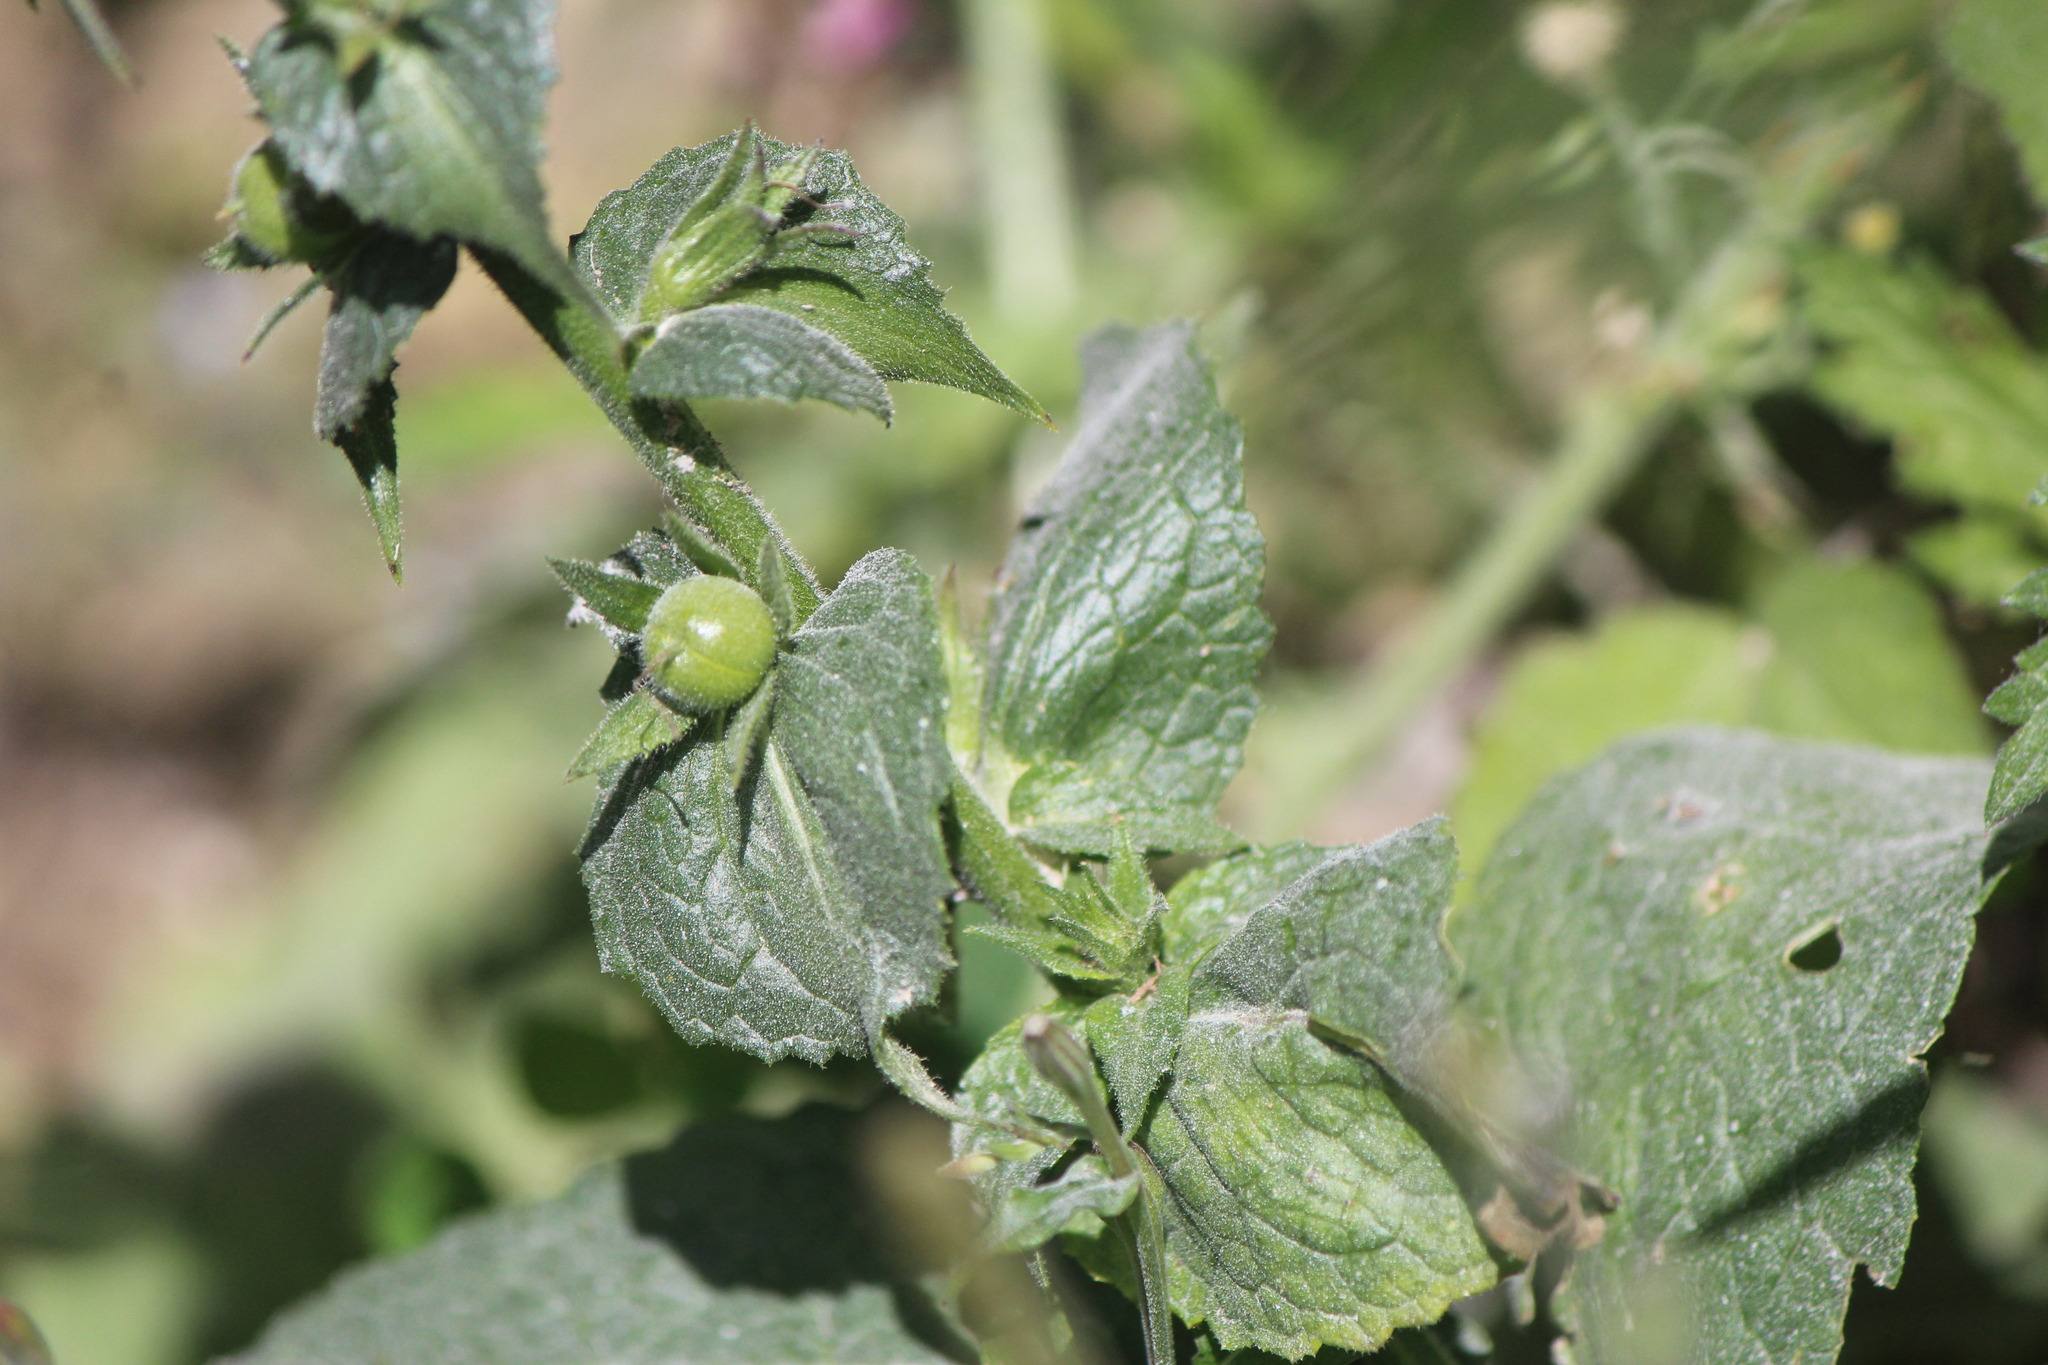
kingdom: Plantae
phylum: Tracheophyta
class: Magnoliopsida
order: Lamiales
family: Scrophulariaceae
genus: Verbascum
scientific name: Verbascum virgatum
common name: Twiggy mullein
